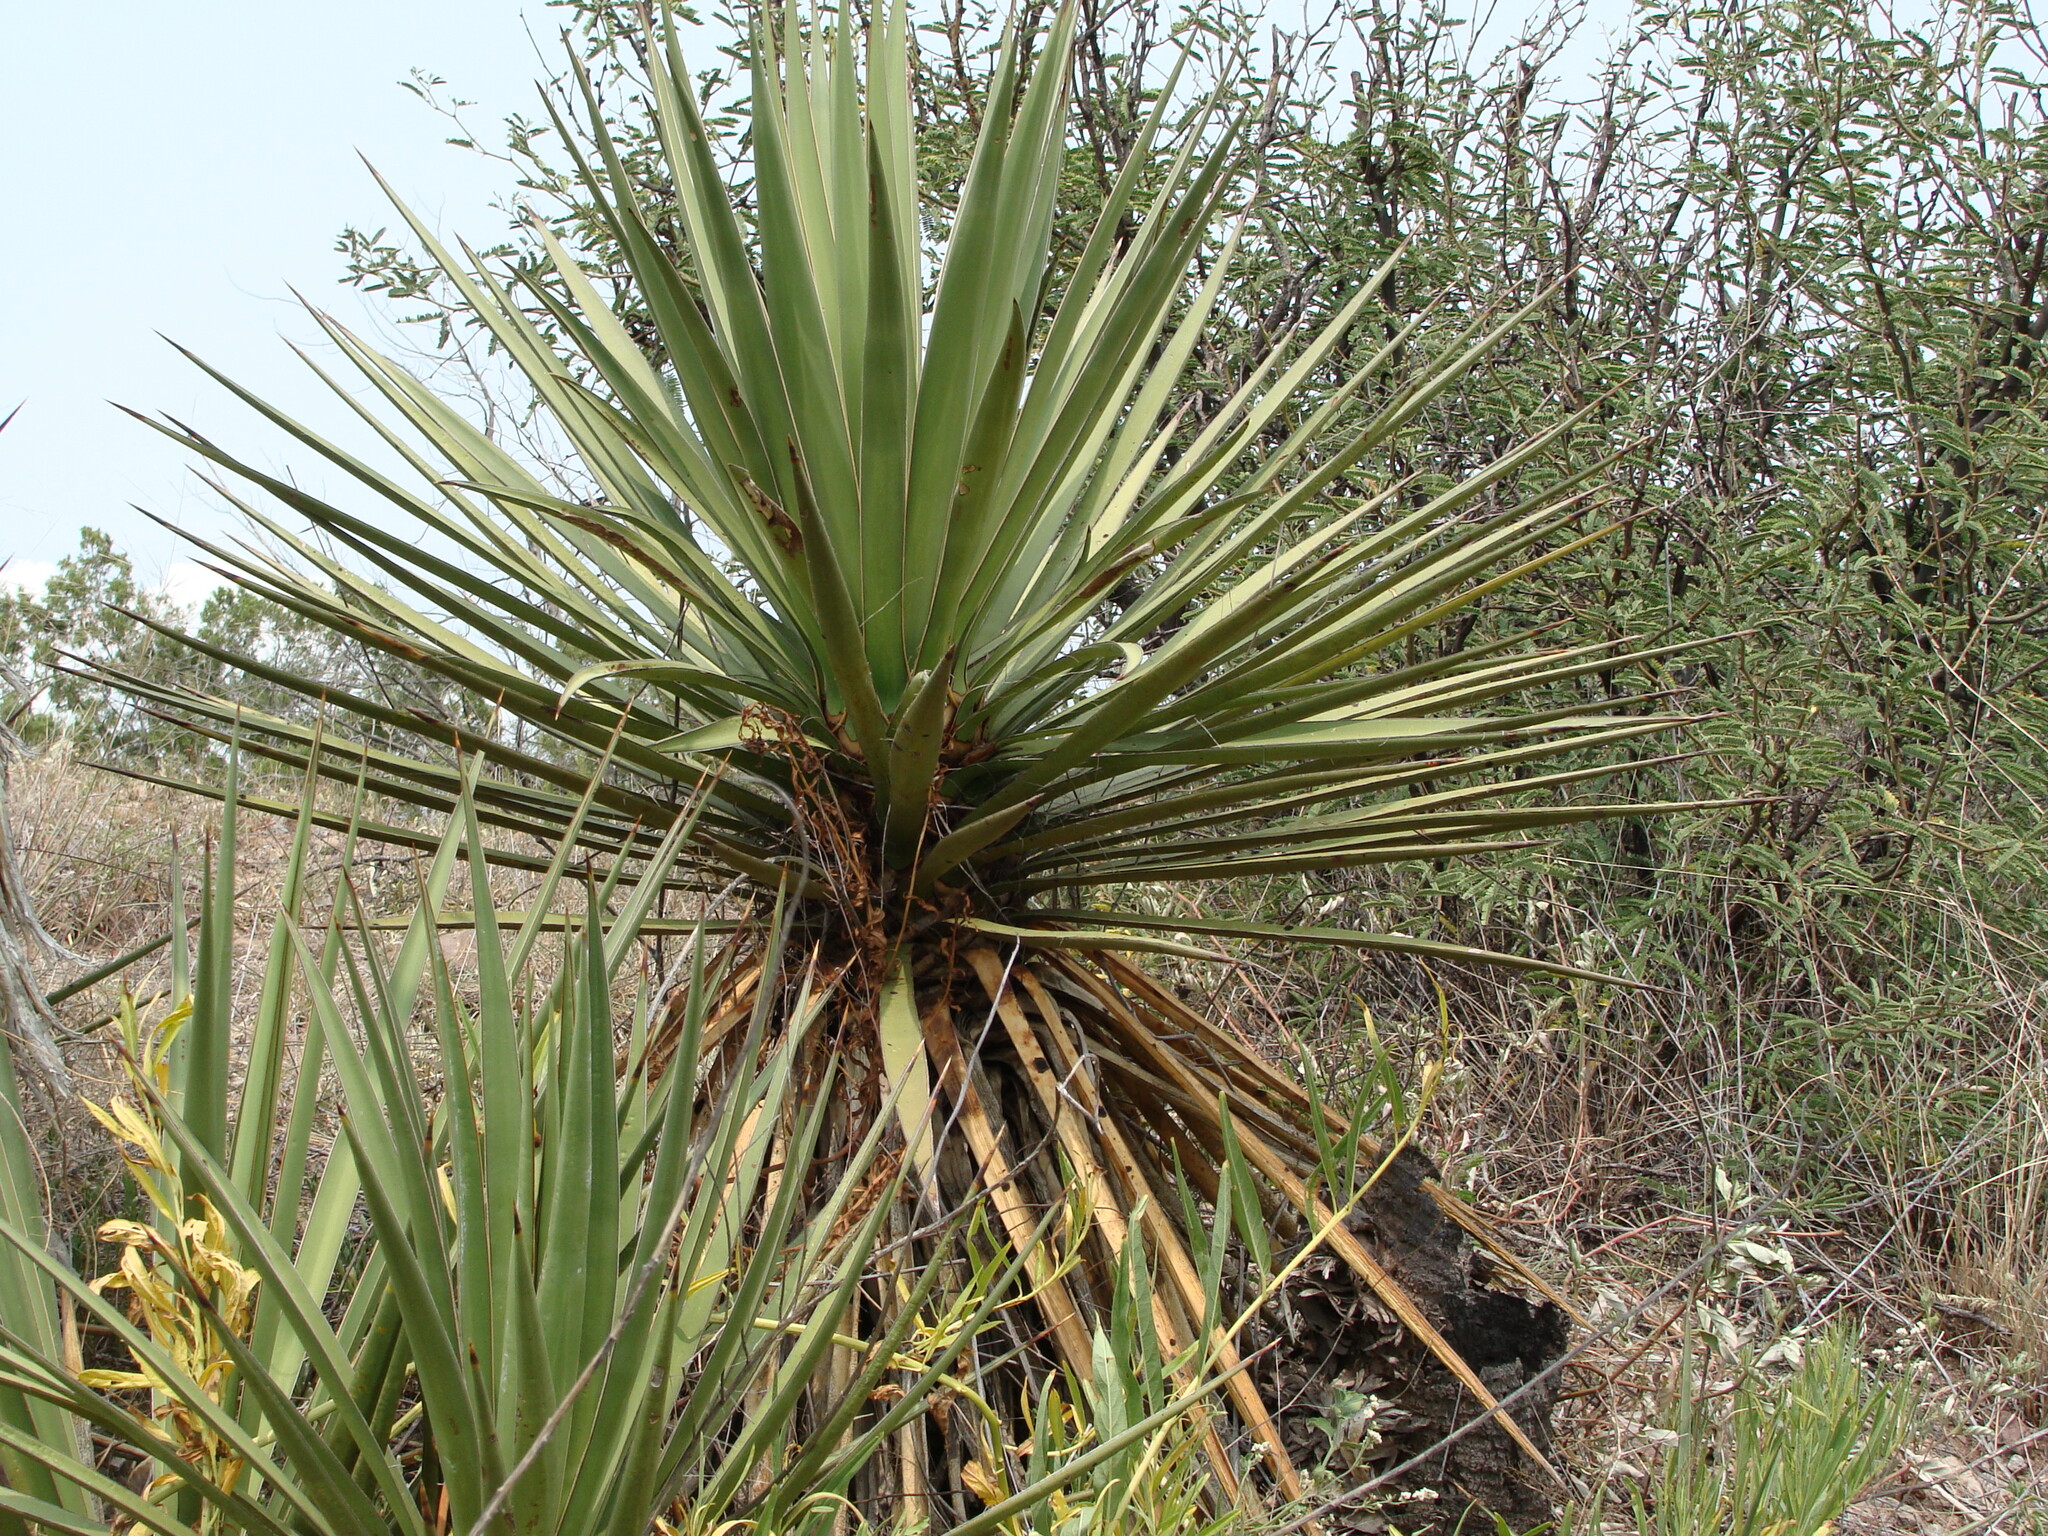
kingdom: Plantae
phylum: Tracheophyta
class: Liliopsida
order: Asparagales
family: Asparagaceae
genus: Yucca
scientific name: Yucca madrensis
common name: Hoary yucca
